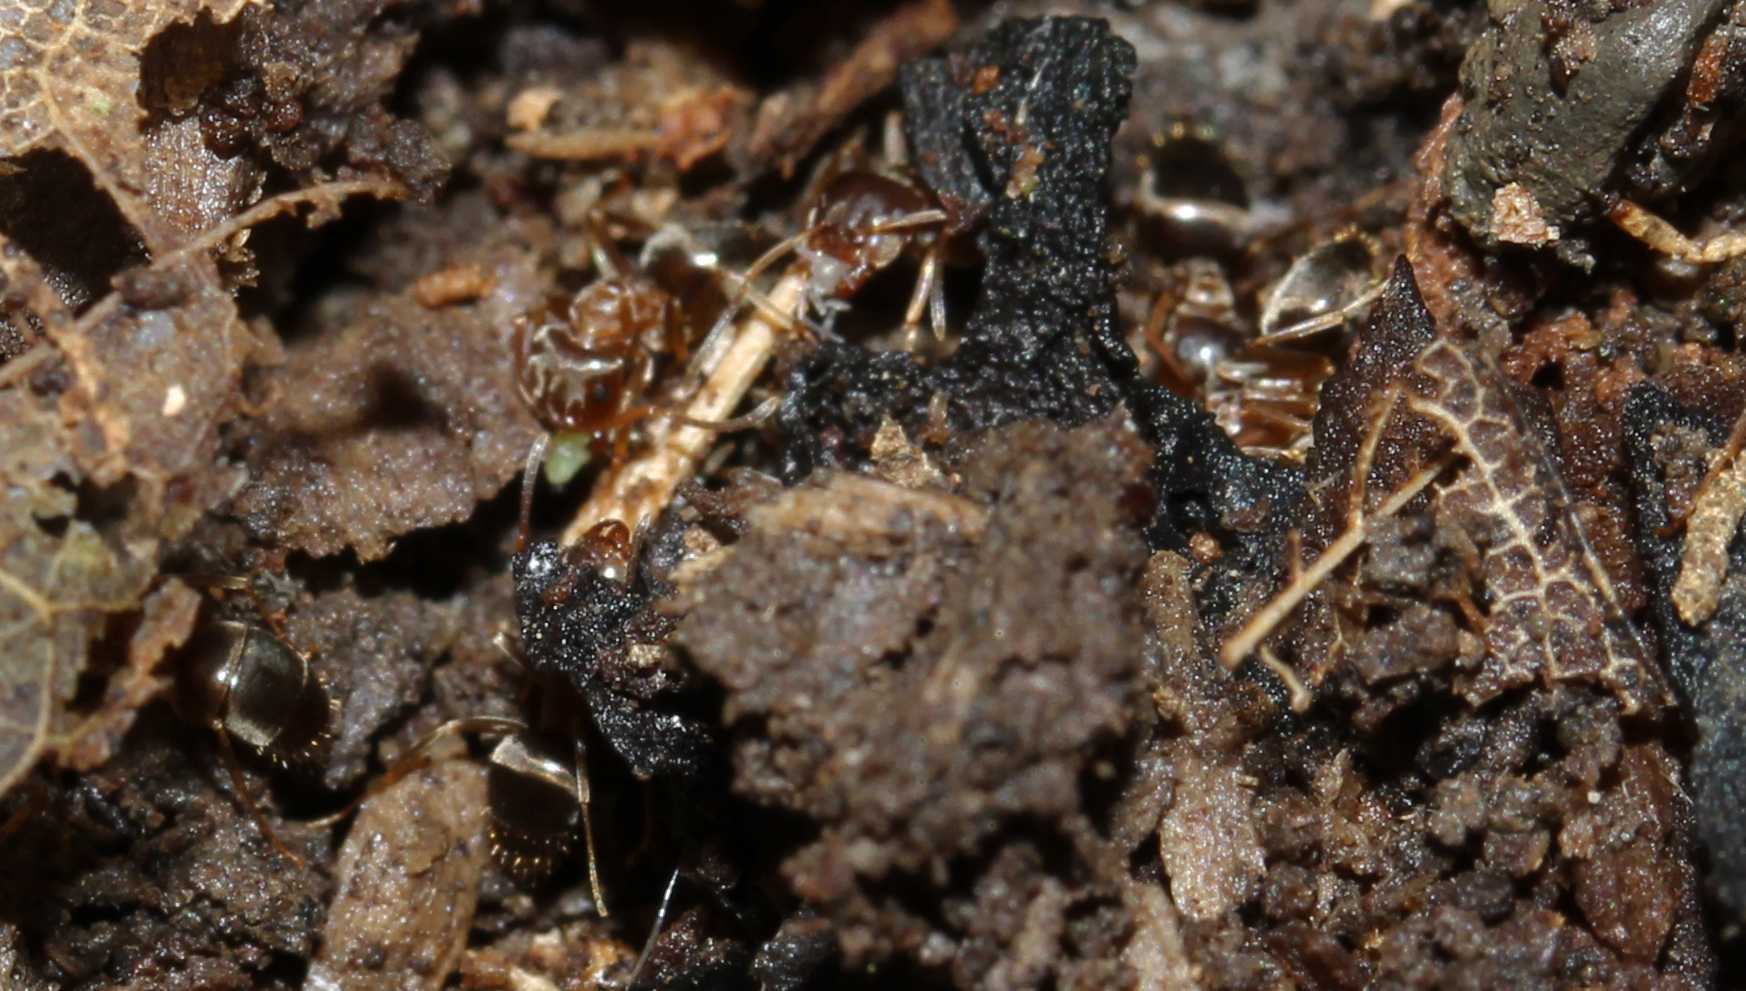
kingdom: Animalia
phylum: Arthropoda
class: Insecta
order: Hymenoptera
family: Formicidae
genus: Lasius
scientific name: Lasius brunneus
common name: Brown ant
